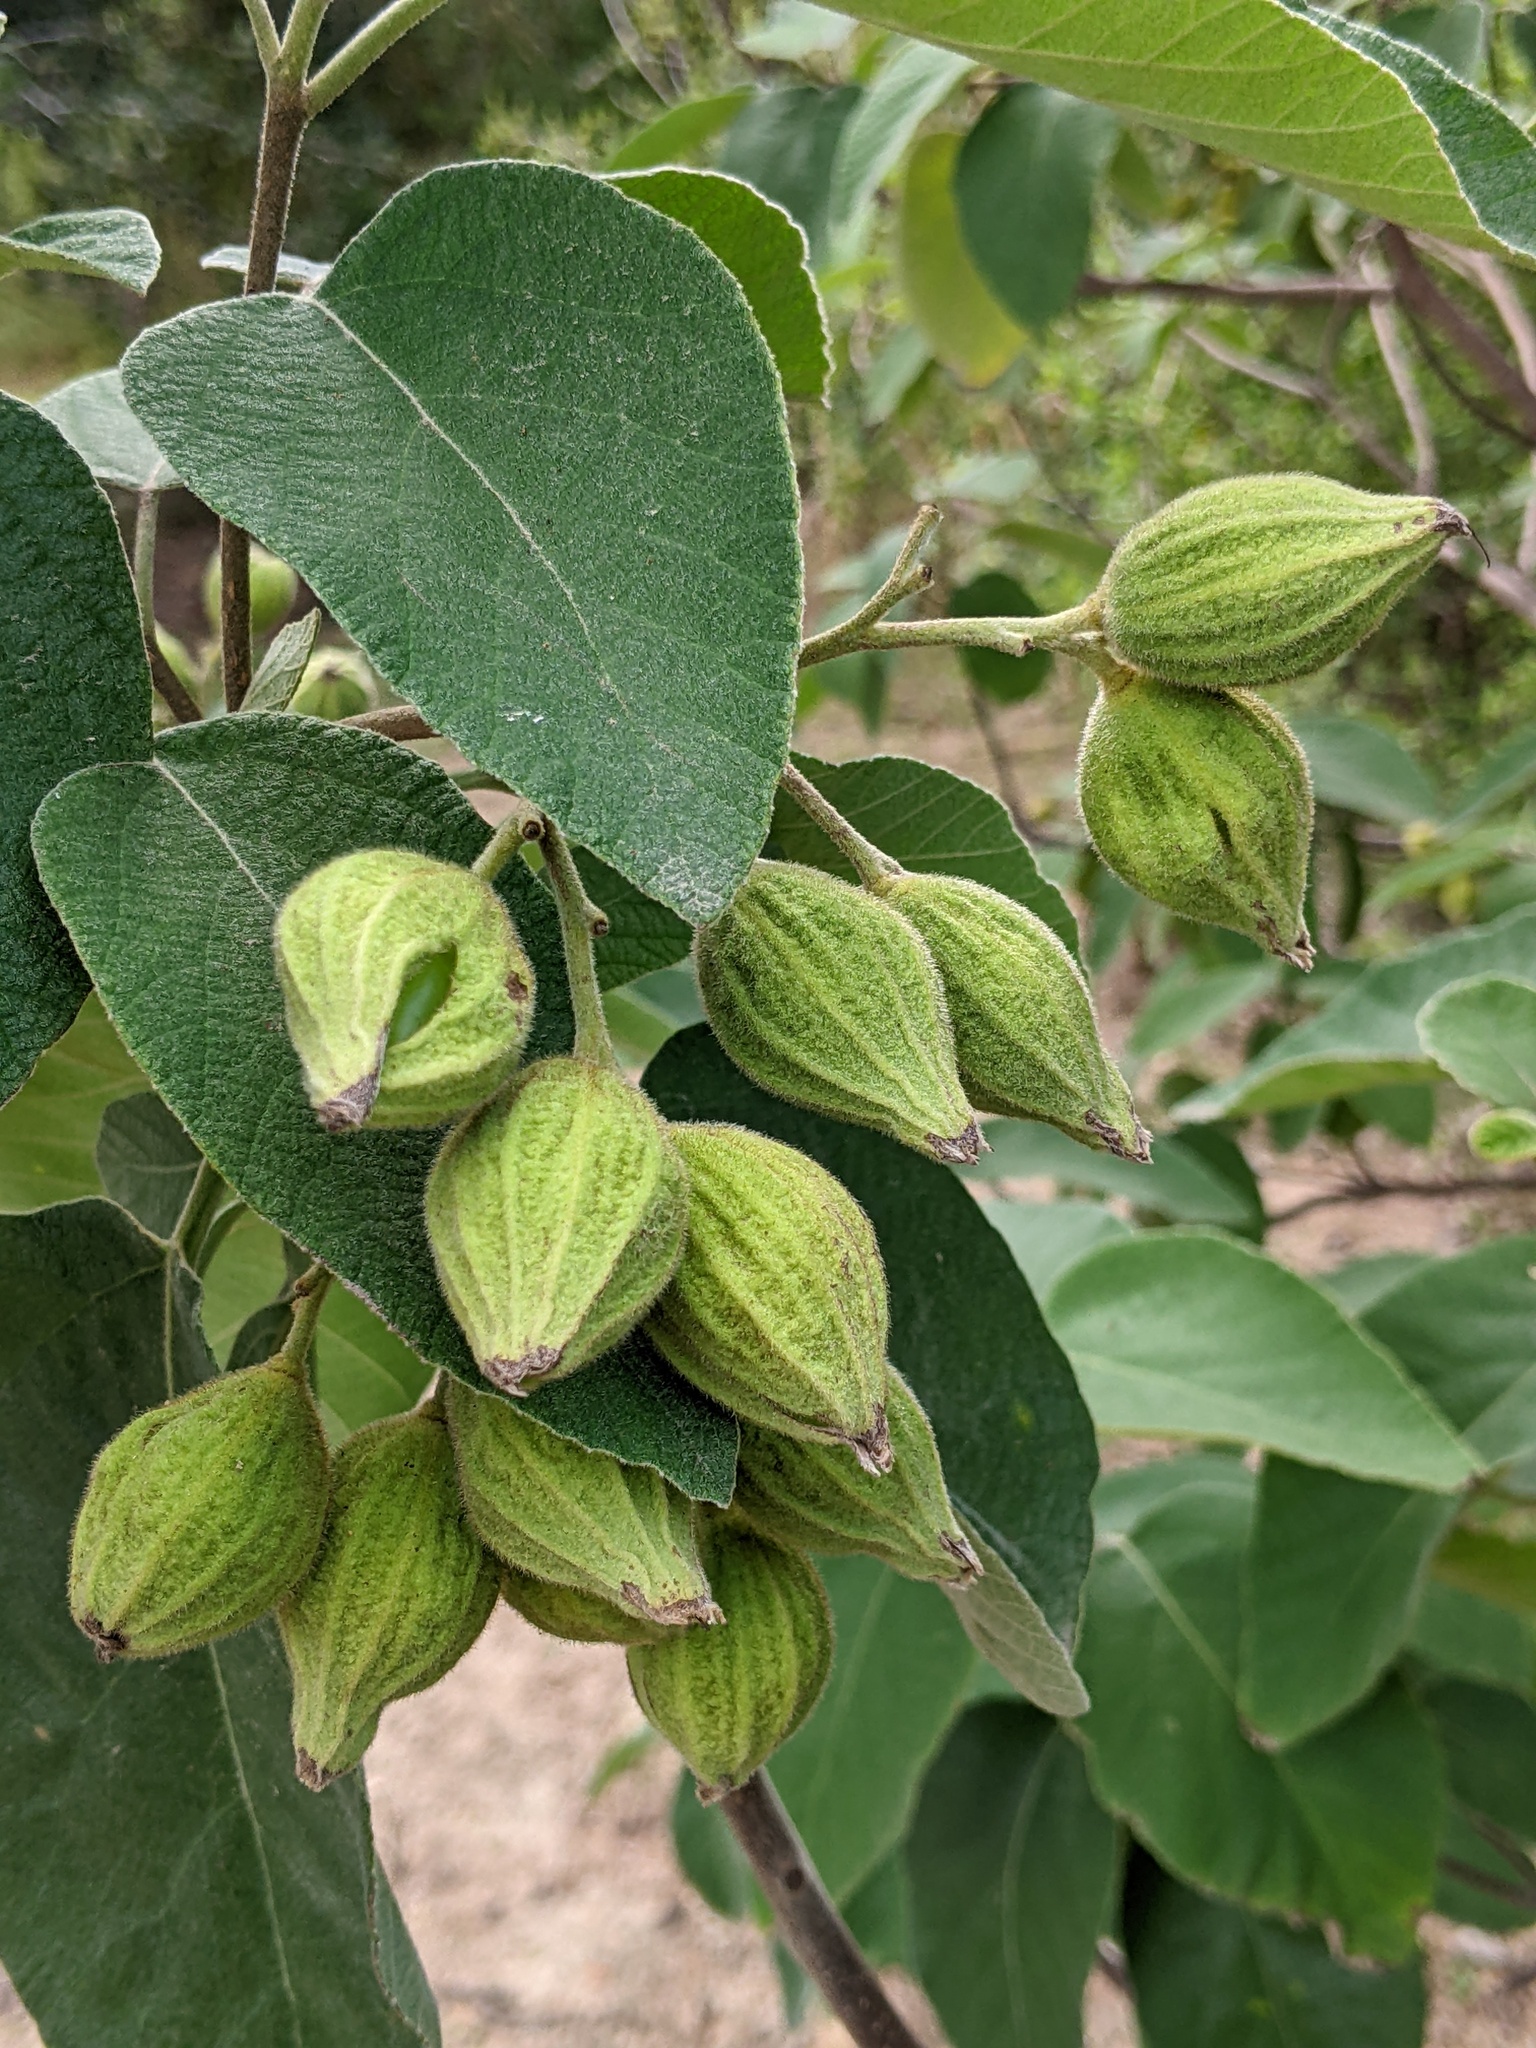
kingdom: Plantae
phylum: Tracheophyta
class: Magnoliopsida
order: Boraginales
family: Cordiaceae
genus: Cordia
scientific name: Cordia boissieri
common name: Mexican-olive
